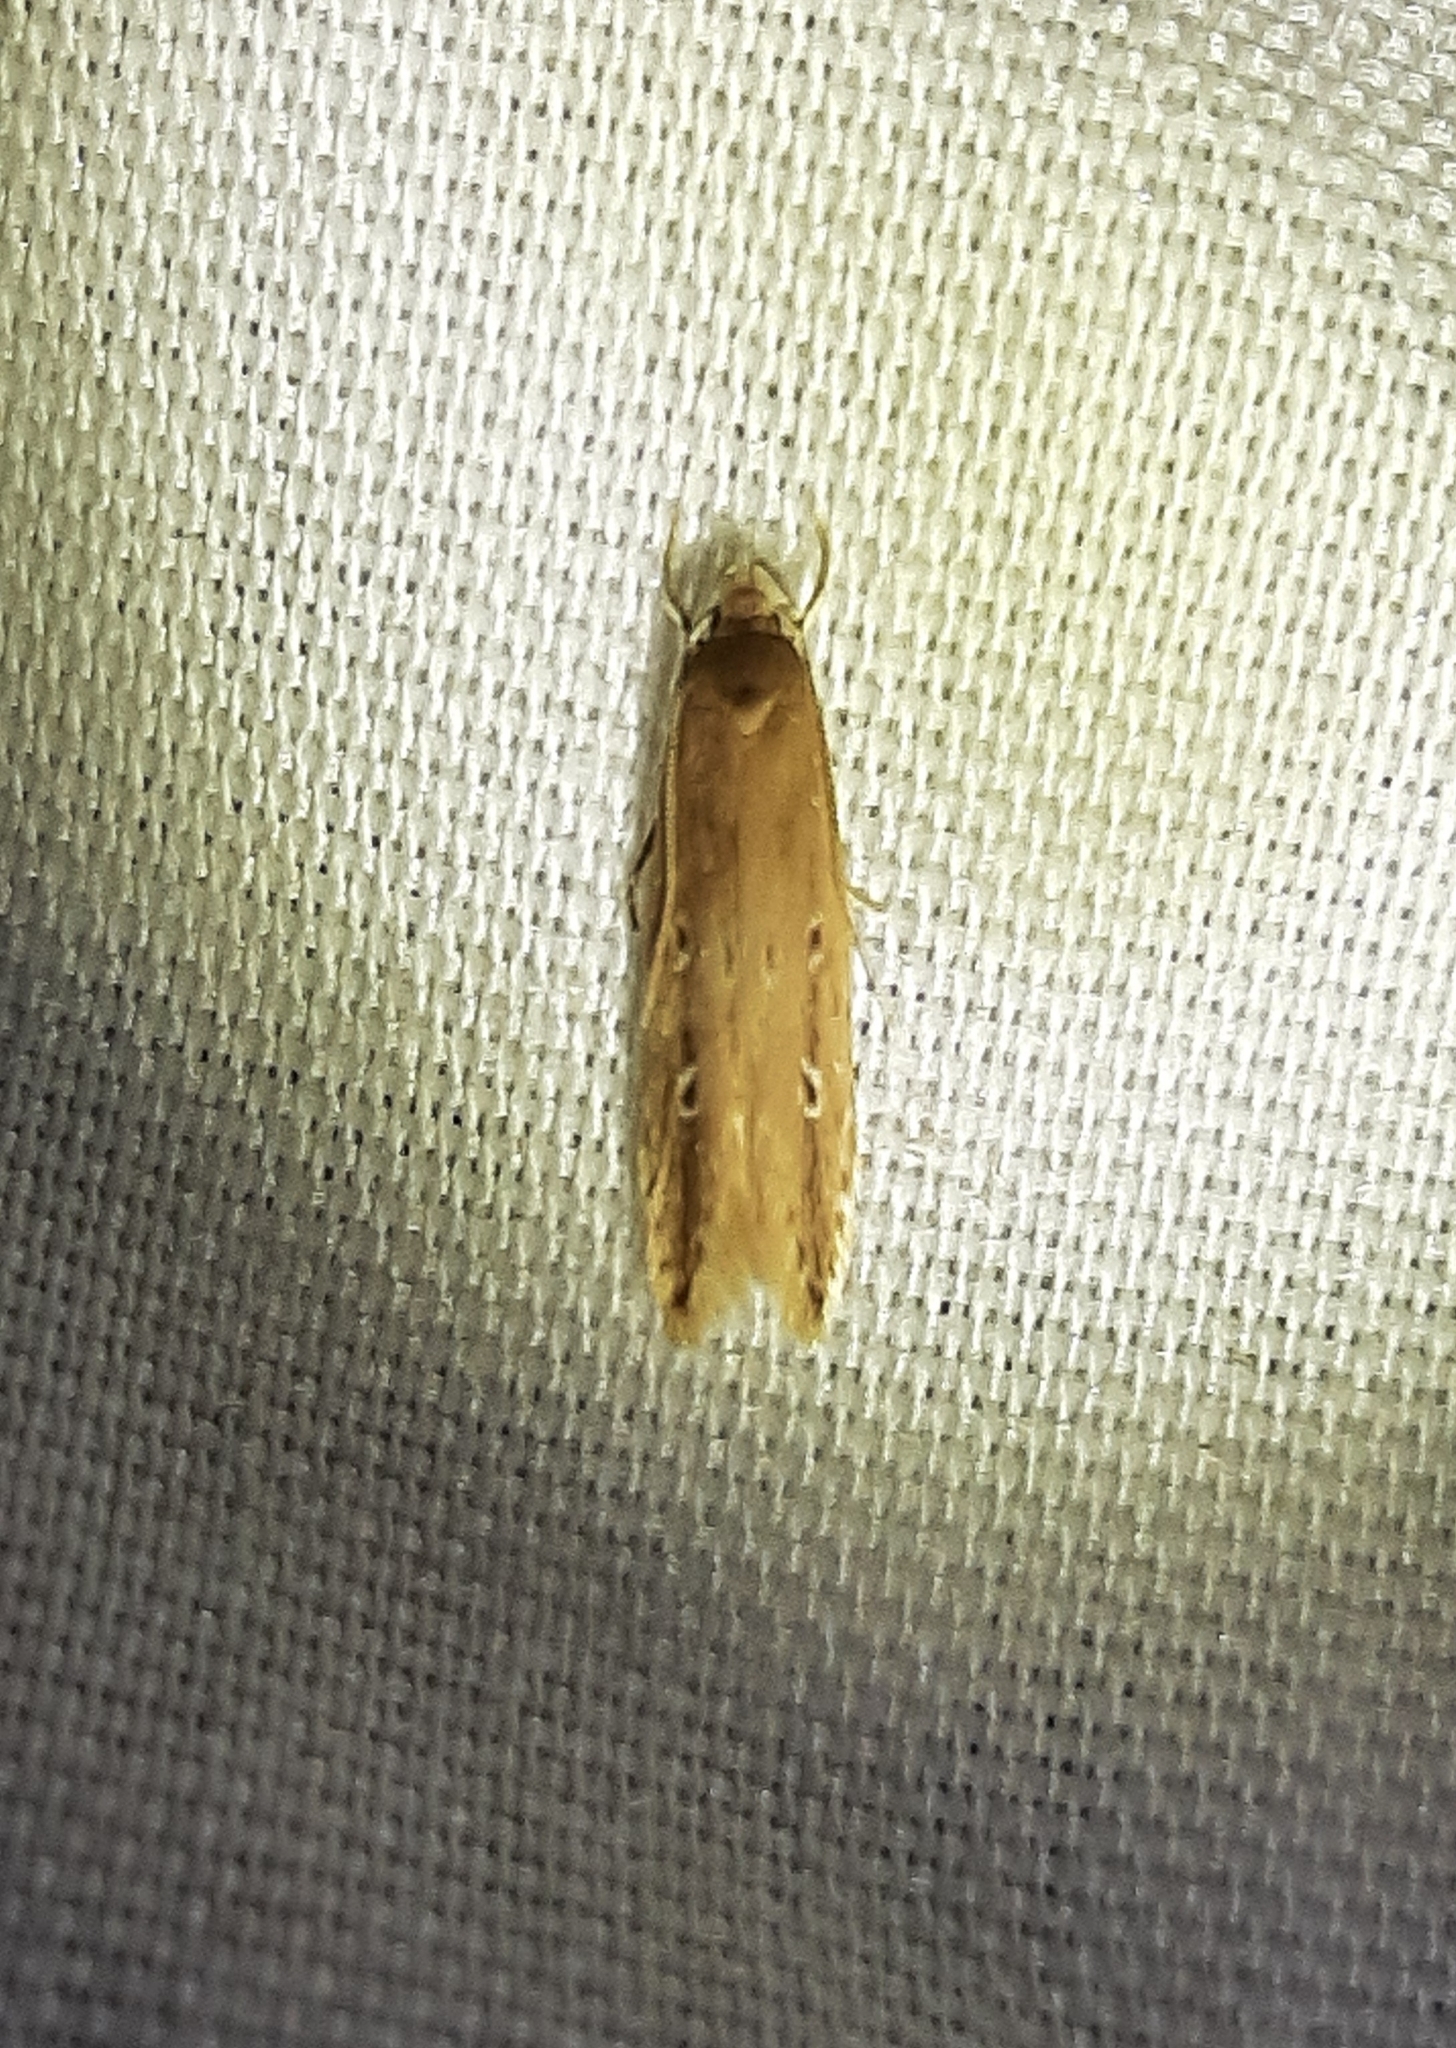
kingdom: Animalia
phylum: Arthropoda
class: Insecta
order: Lepidoptera
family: Cosmopterigidae
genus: Limnaecia
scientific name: Limnaecia phragmitella
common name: Bulrush cosmet
